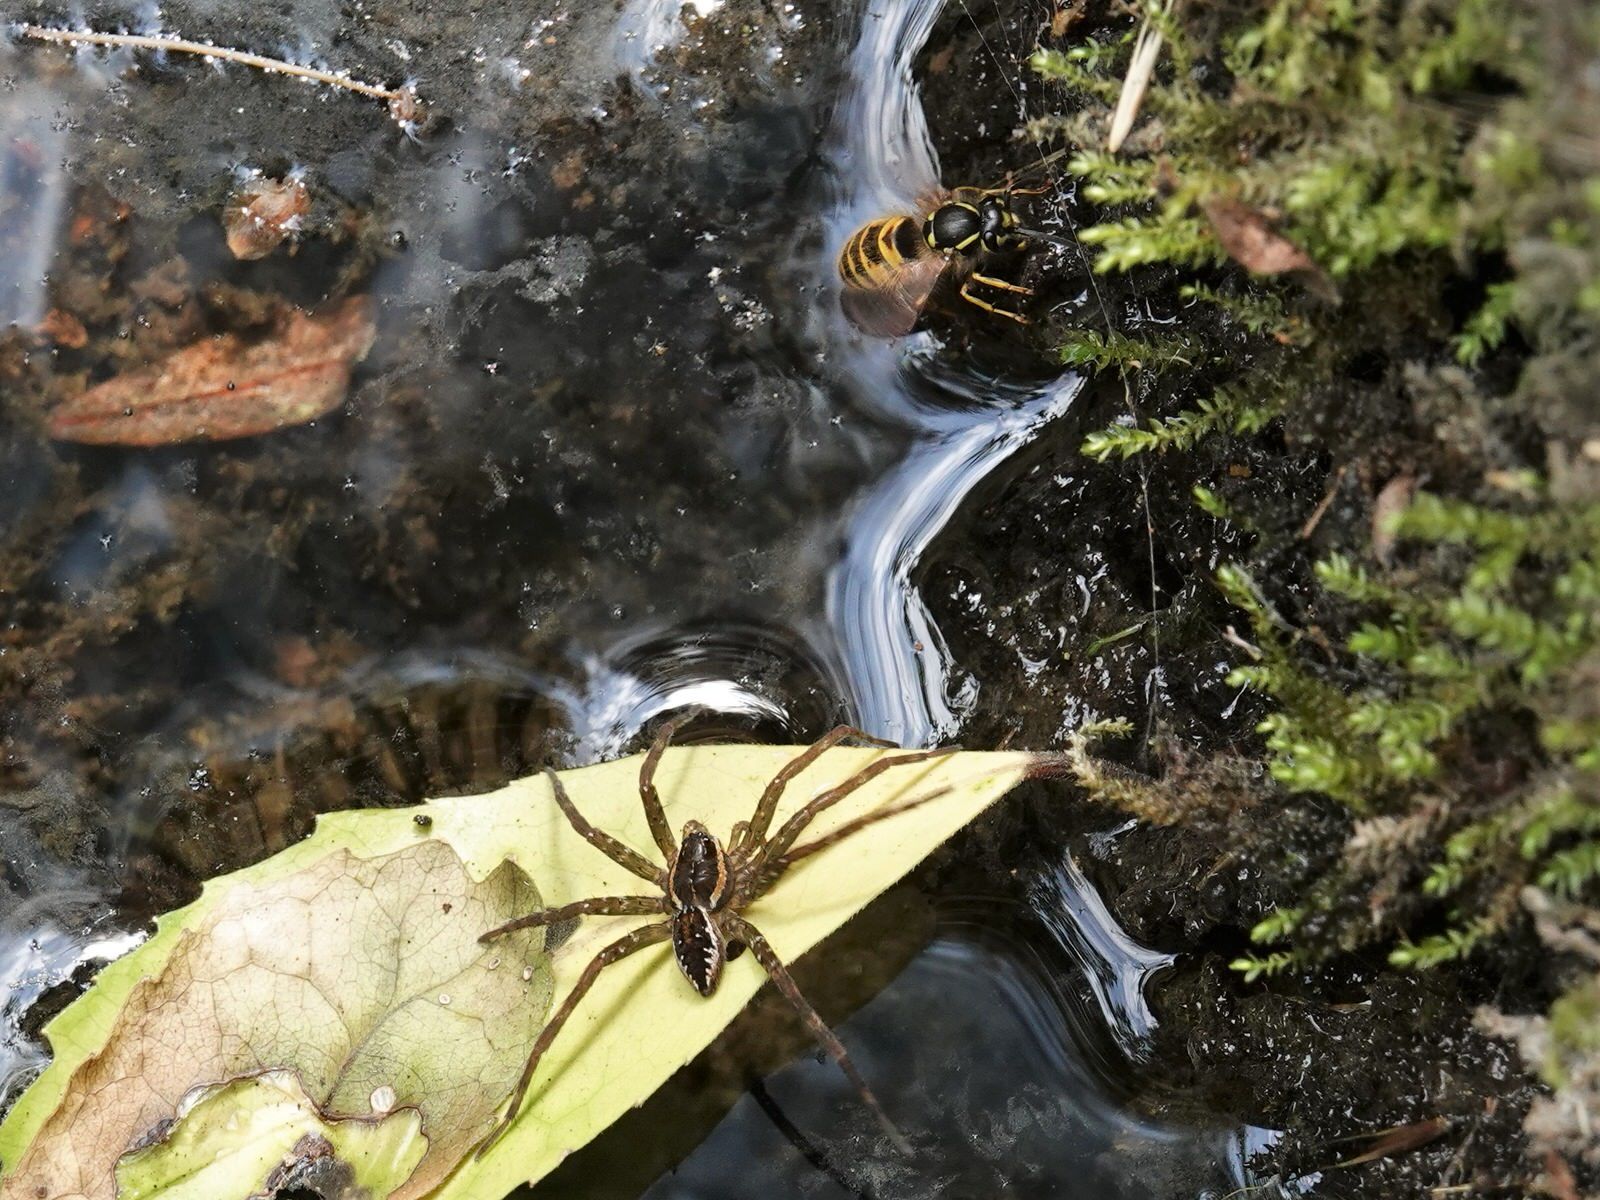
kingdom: Animalia
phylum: Arthropoda
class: Insecta
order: Hymenoptera
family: Vespidae
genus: Vespula
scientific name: Vespula vulgaris
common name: Common wasp
